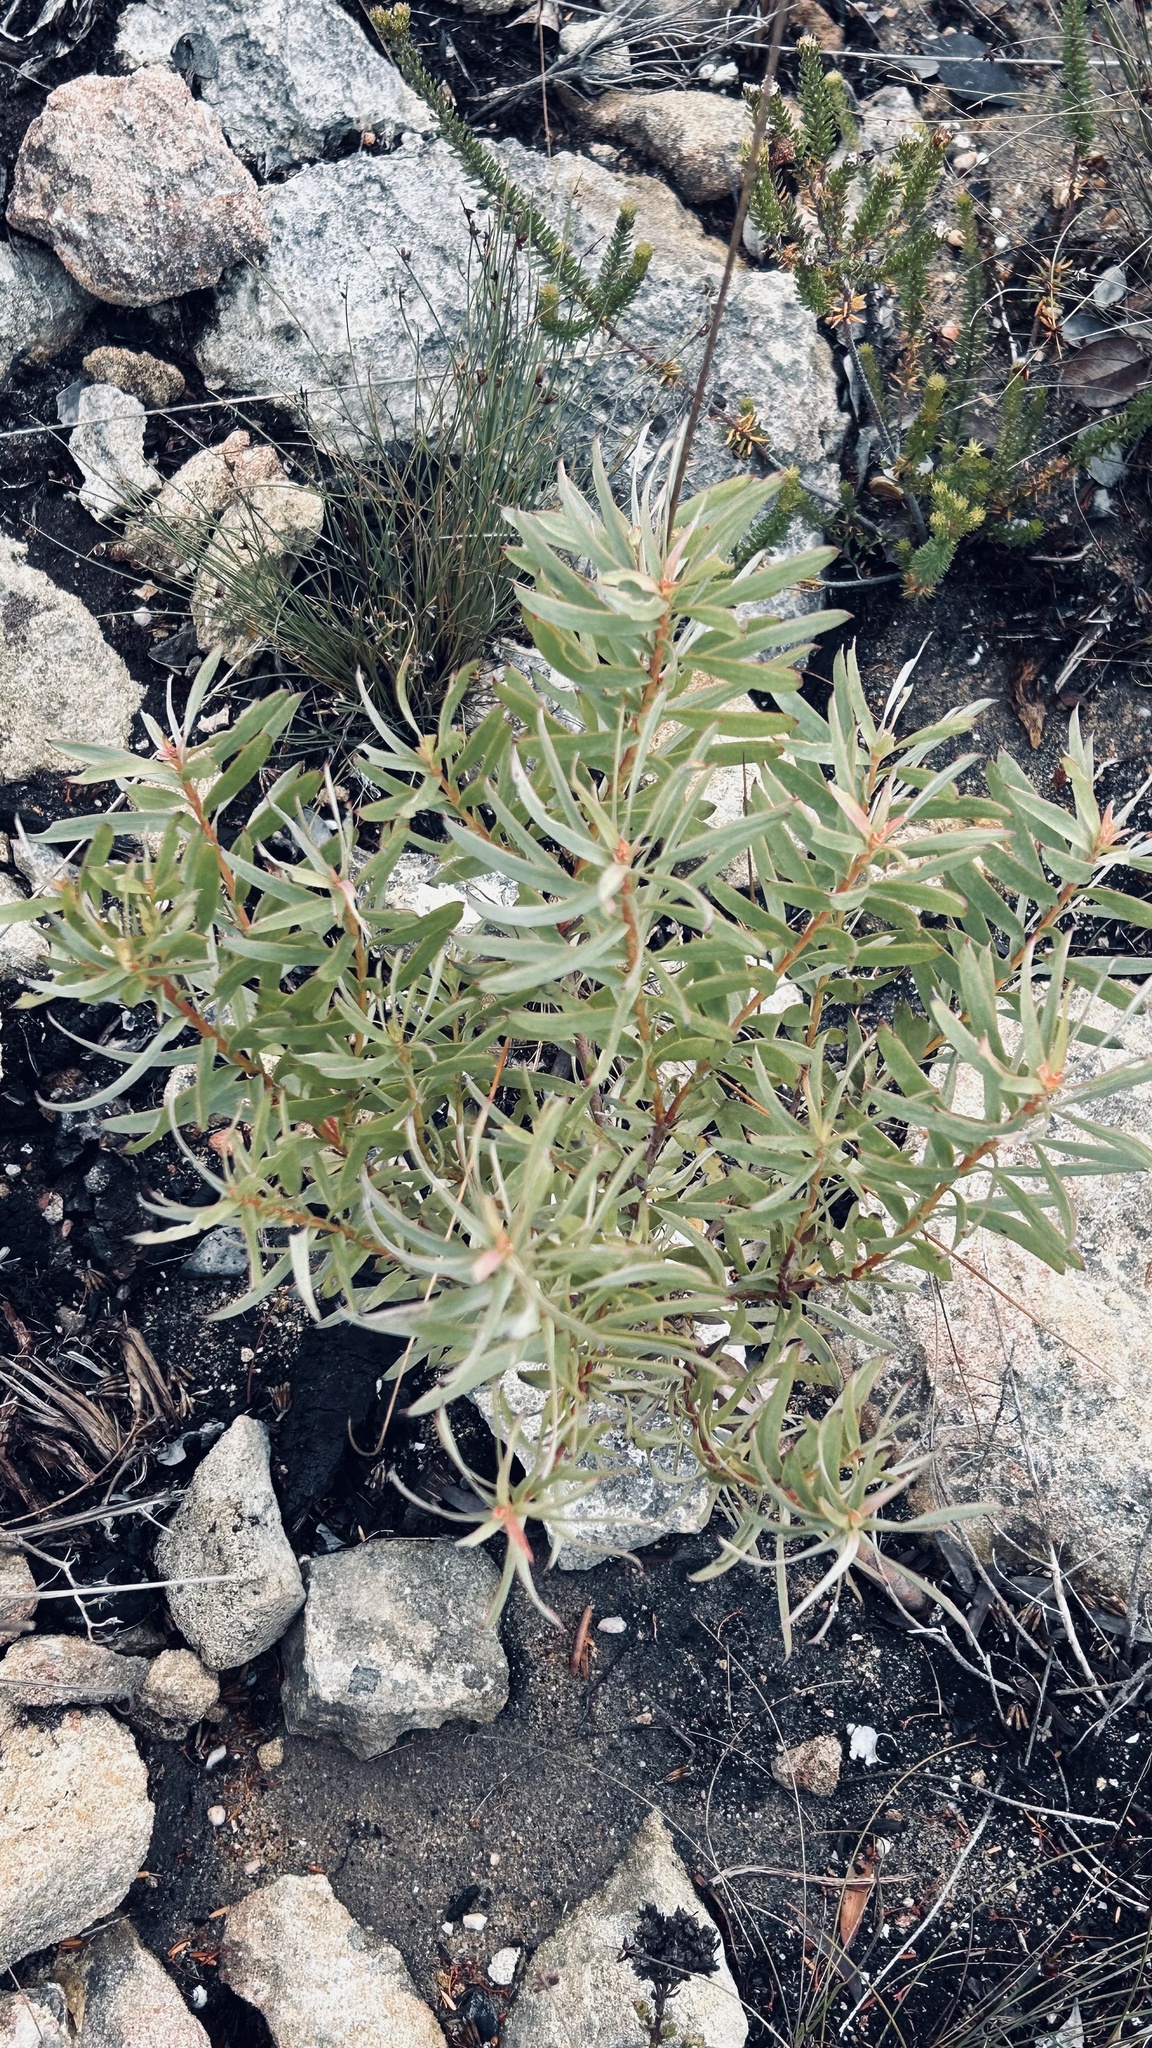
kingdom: Plantae
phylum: Tracheophyta
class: Magnoliopsida
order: Proteales
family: Proteaceae
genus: Leucadendron
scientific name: Leucadendron meridianum
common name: Limestone conebush
